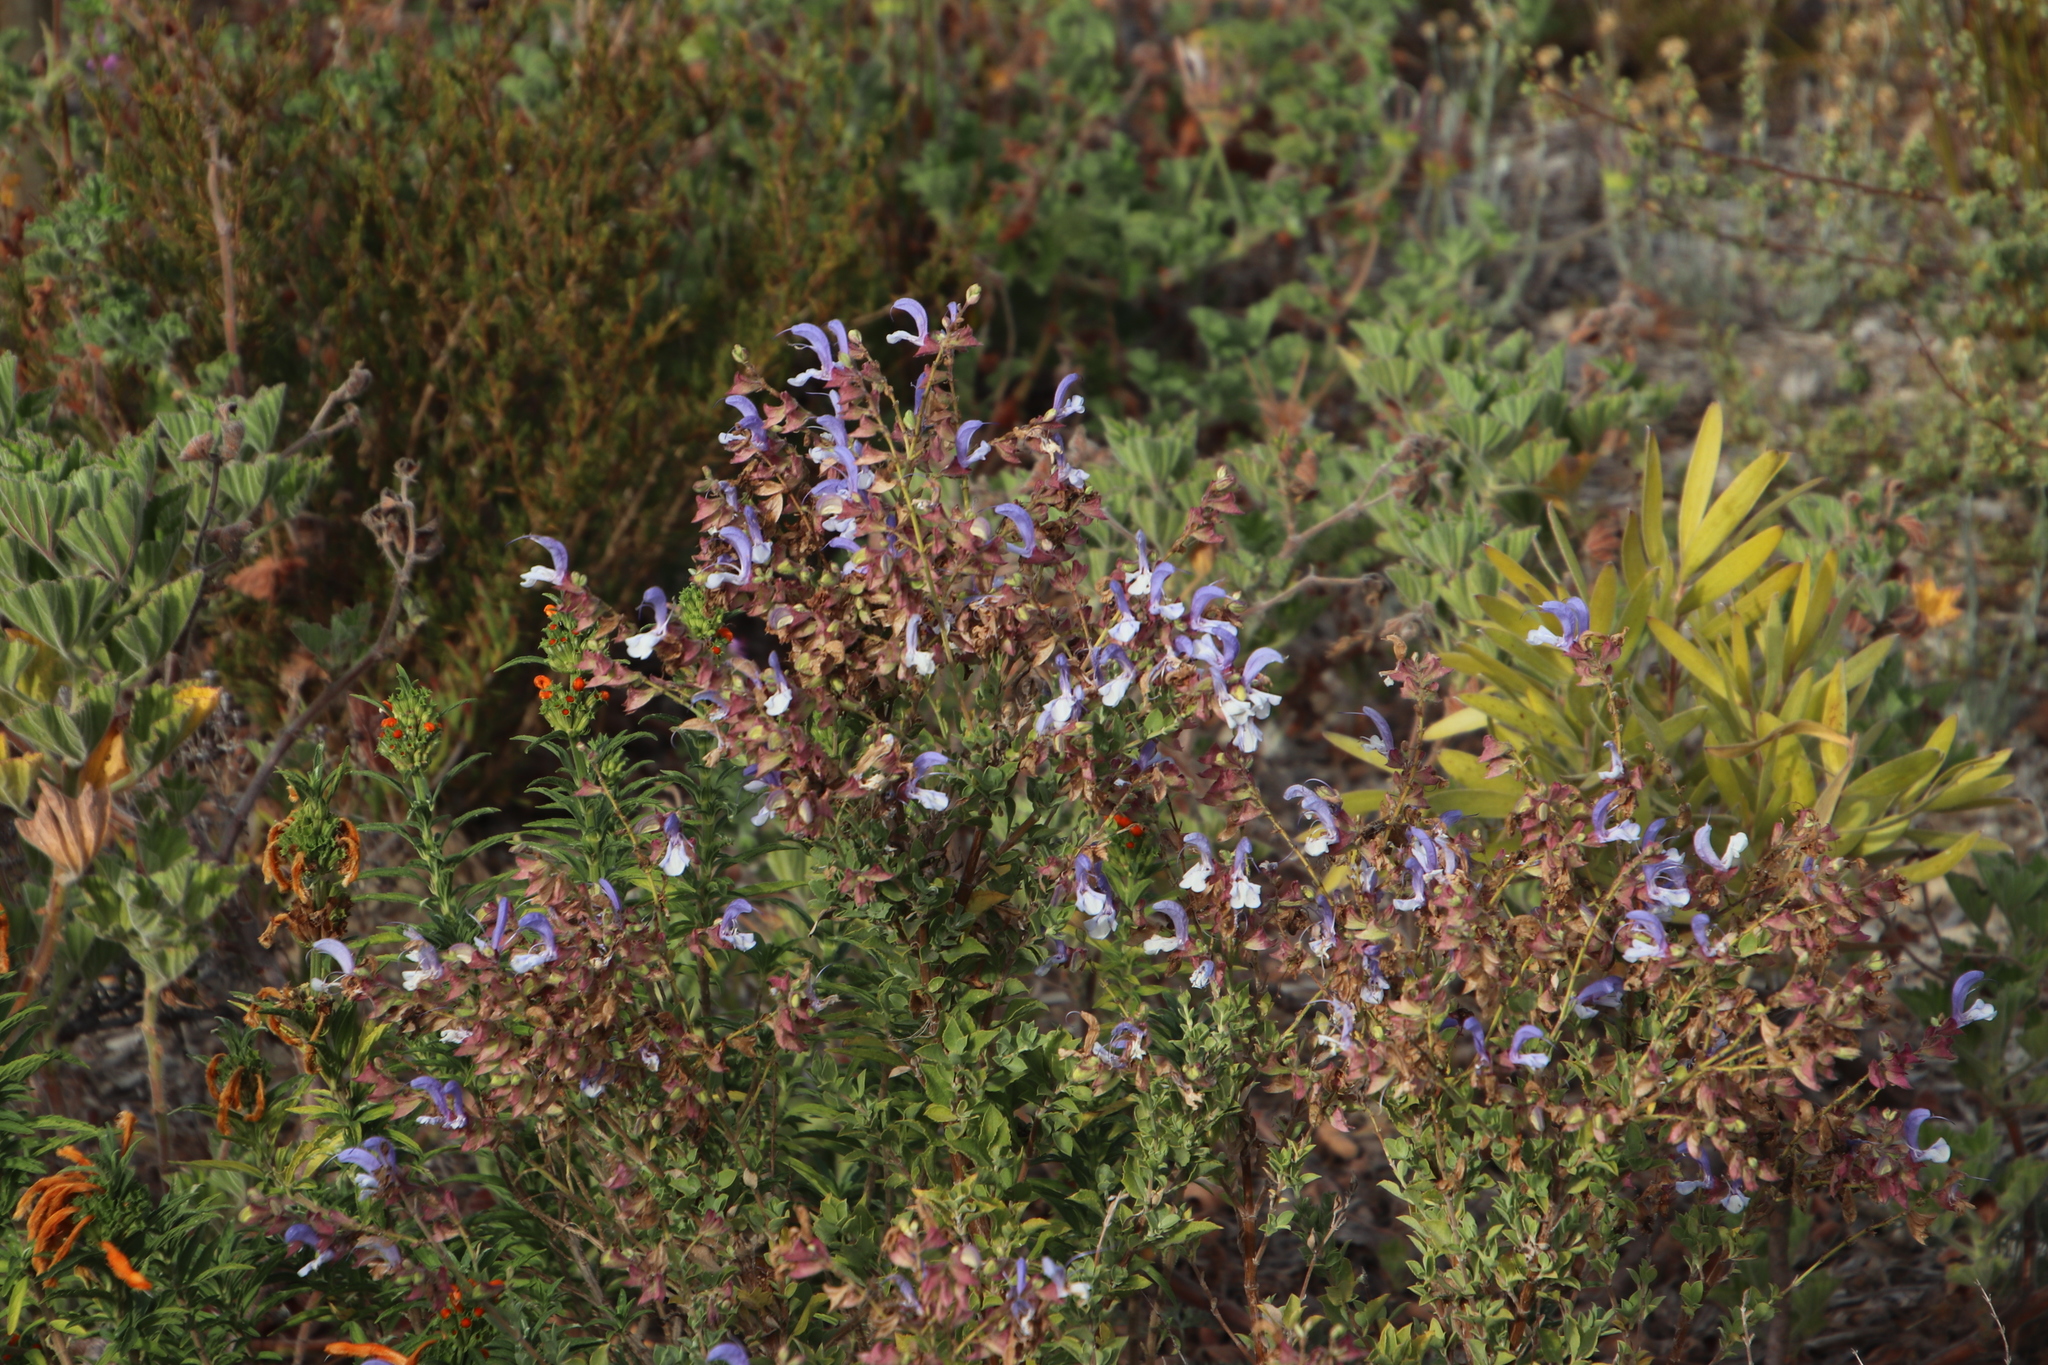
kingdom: Plantae
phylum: Tracheophyta
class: Magnoliopsida
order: Lamiales
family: Lamiaceae
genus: Salvia
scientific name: Salvia chamelaeagnea
